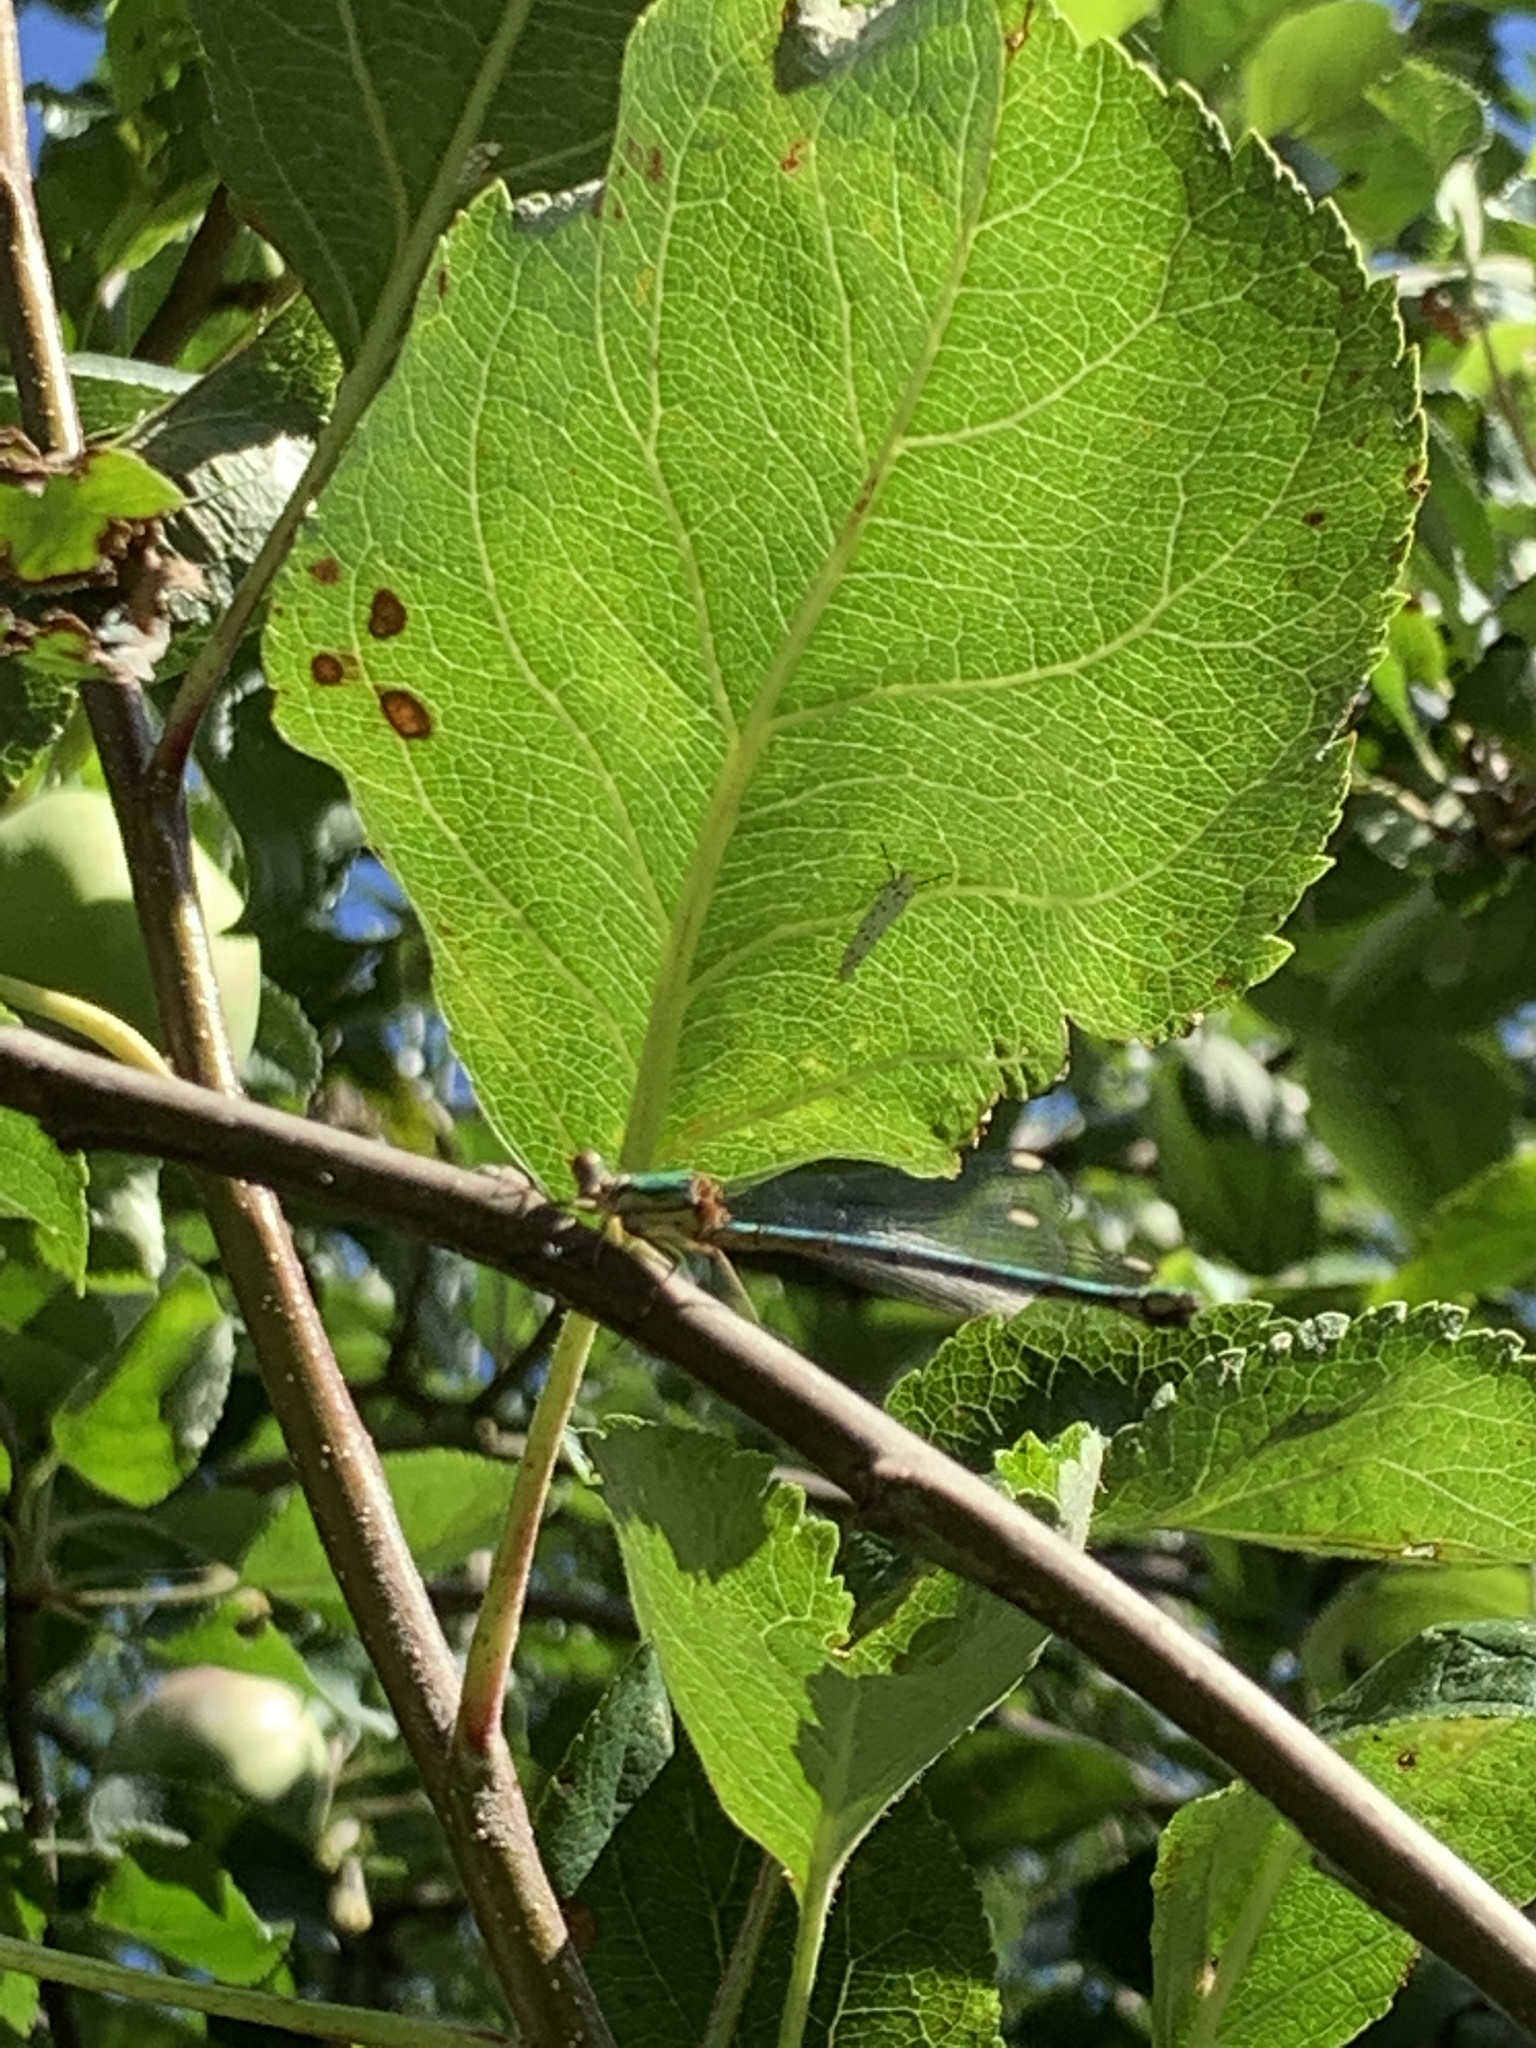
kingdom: Animalia
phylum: Arthropoda
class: Insecta
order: Odonata
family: Lestidae
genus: Chalcolestes
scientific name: Chalcolestes viridis
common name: Green emerald damselfly
